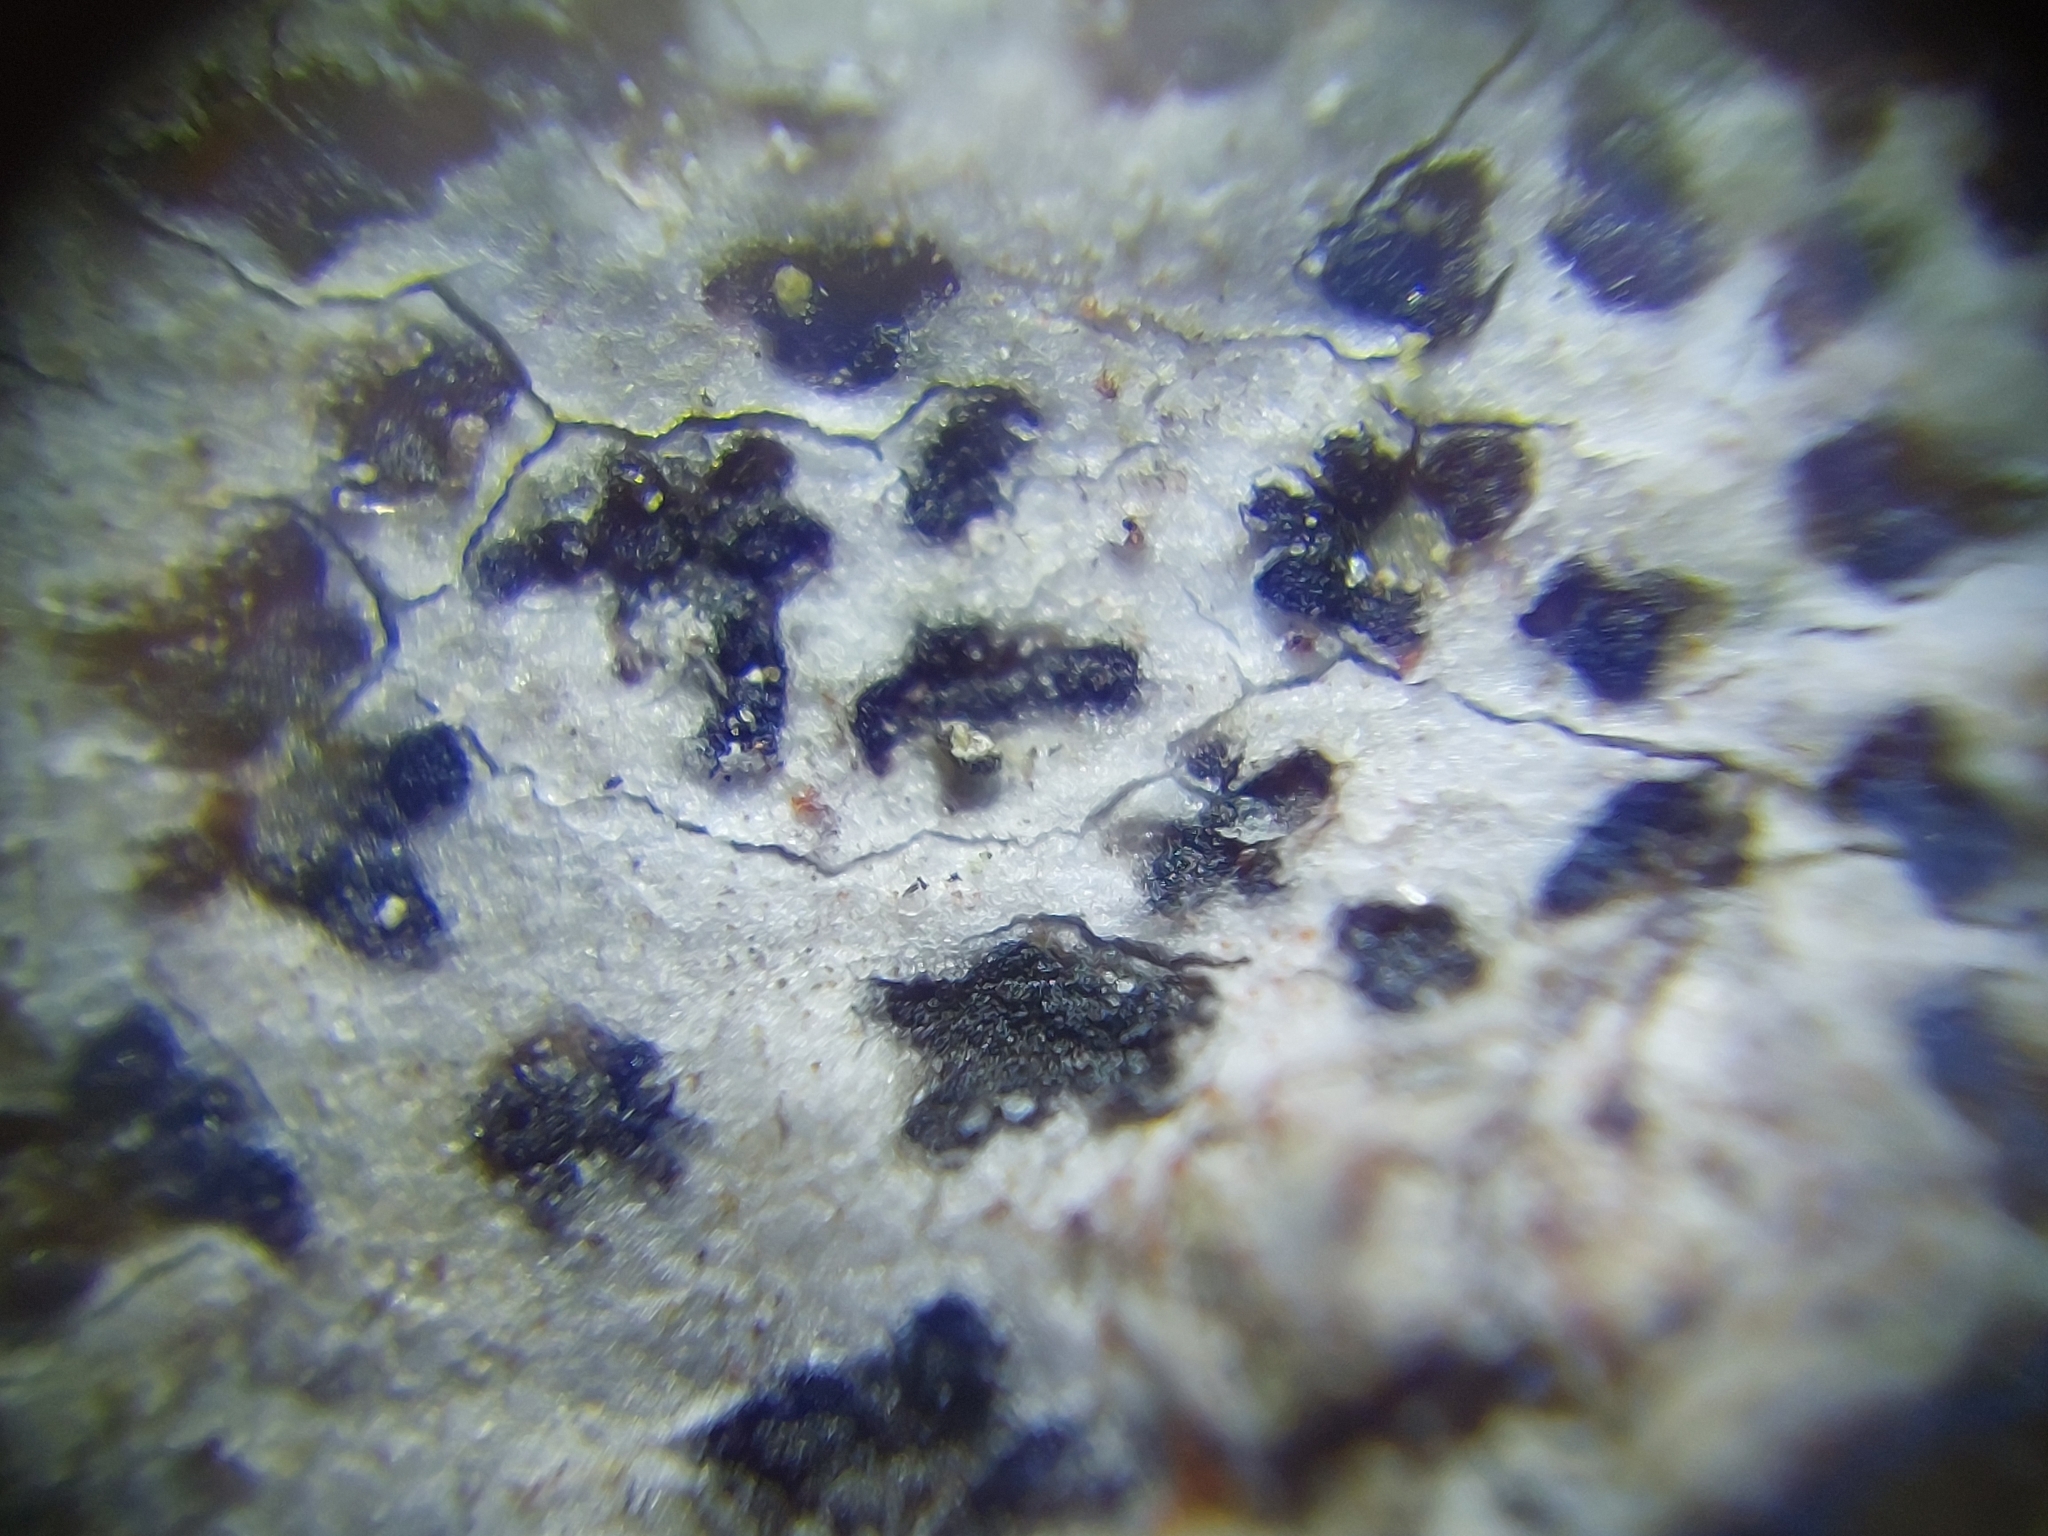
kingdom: Fungi
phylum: Ascomycota
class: Arthoniomycetes
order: Arthoniales
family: Arthoniaceae
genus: Arthonia
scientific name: Arthonia radiata
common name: Asterisk lichen
